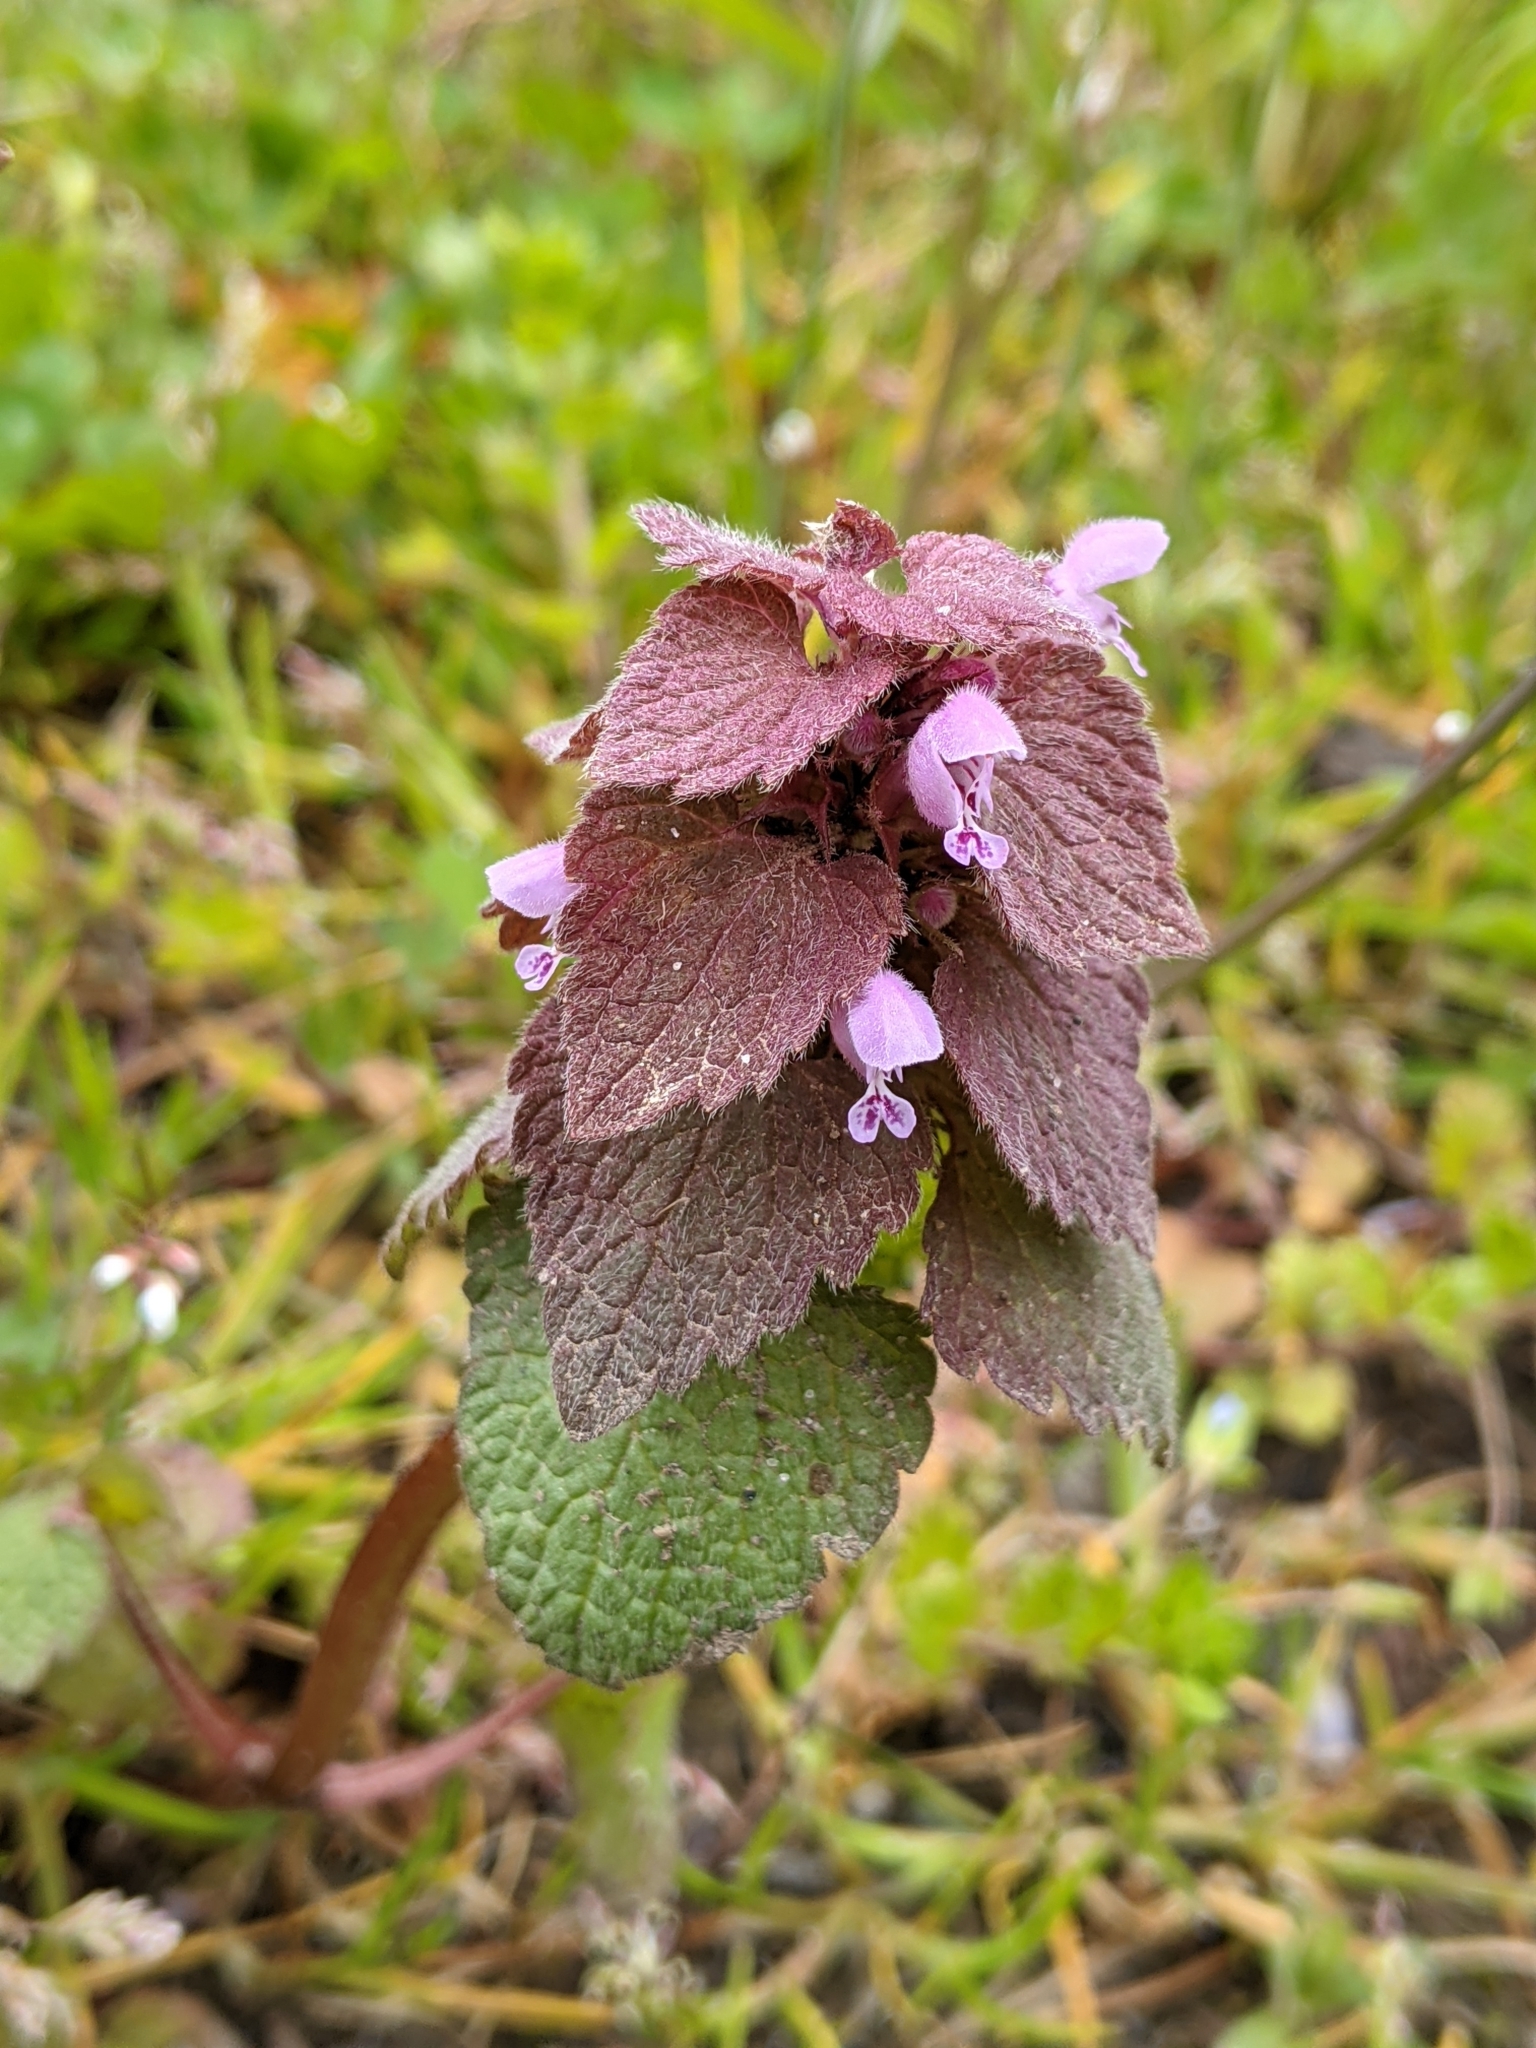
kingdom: Plantae
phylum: Tracheophyta
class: Magnoliopsida
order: Lamiales
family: Lamiaceae
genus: Lamium
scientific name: Lamium purpureum
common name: Red dead-nettle
